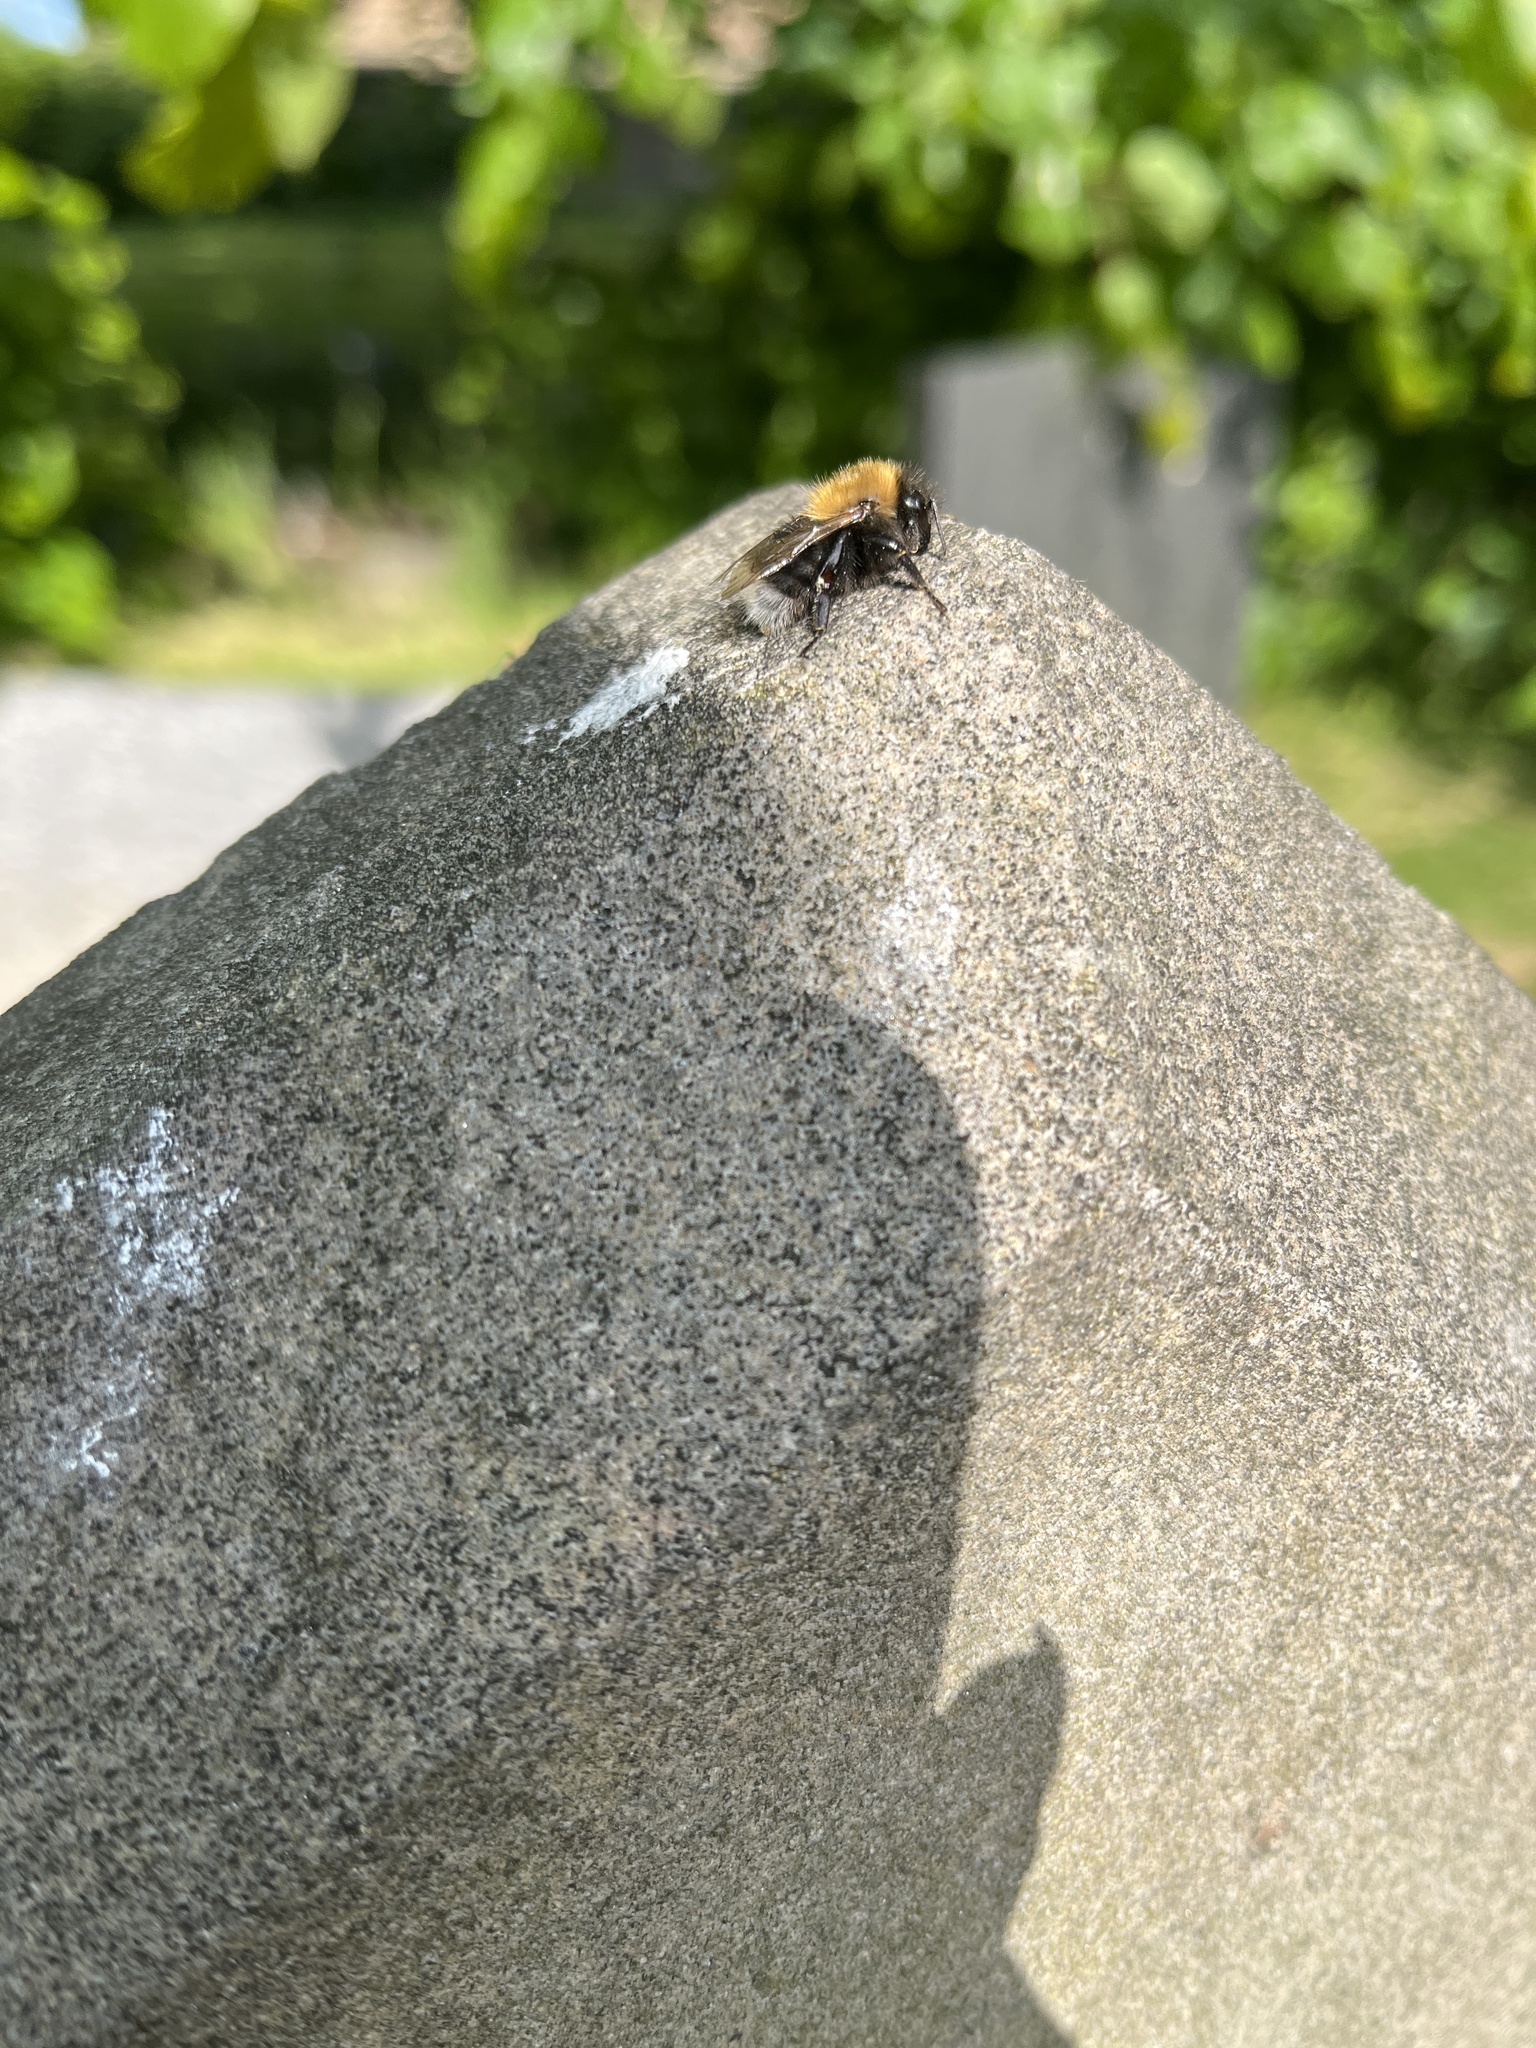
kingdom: Animalia
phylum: Arthropoda
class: Insecta
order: Hymenoptera
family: Apidae
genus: Bombus
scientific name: Bombus hypnorum
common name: New garden bumblebee
